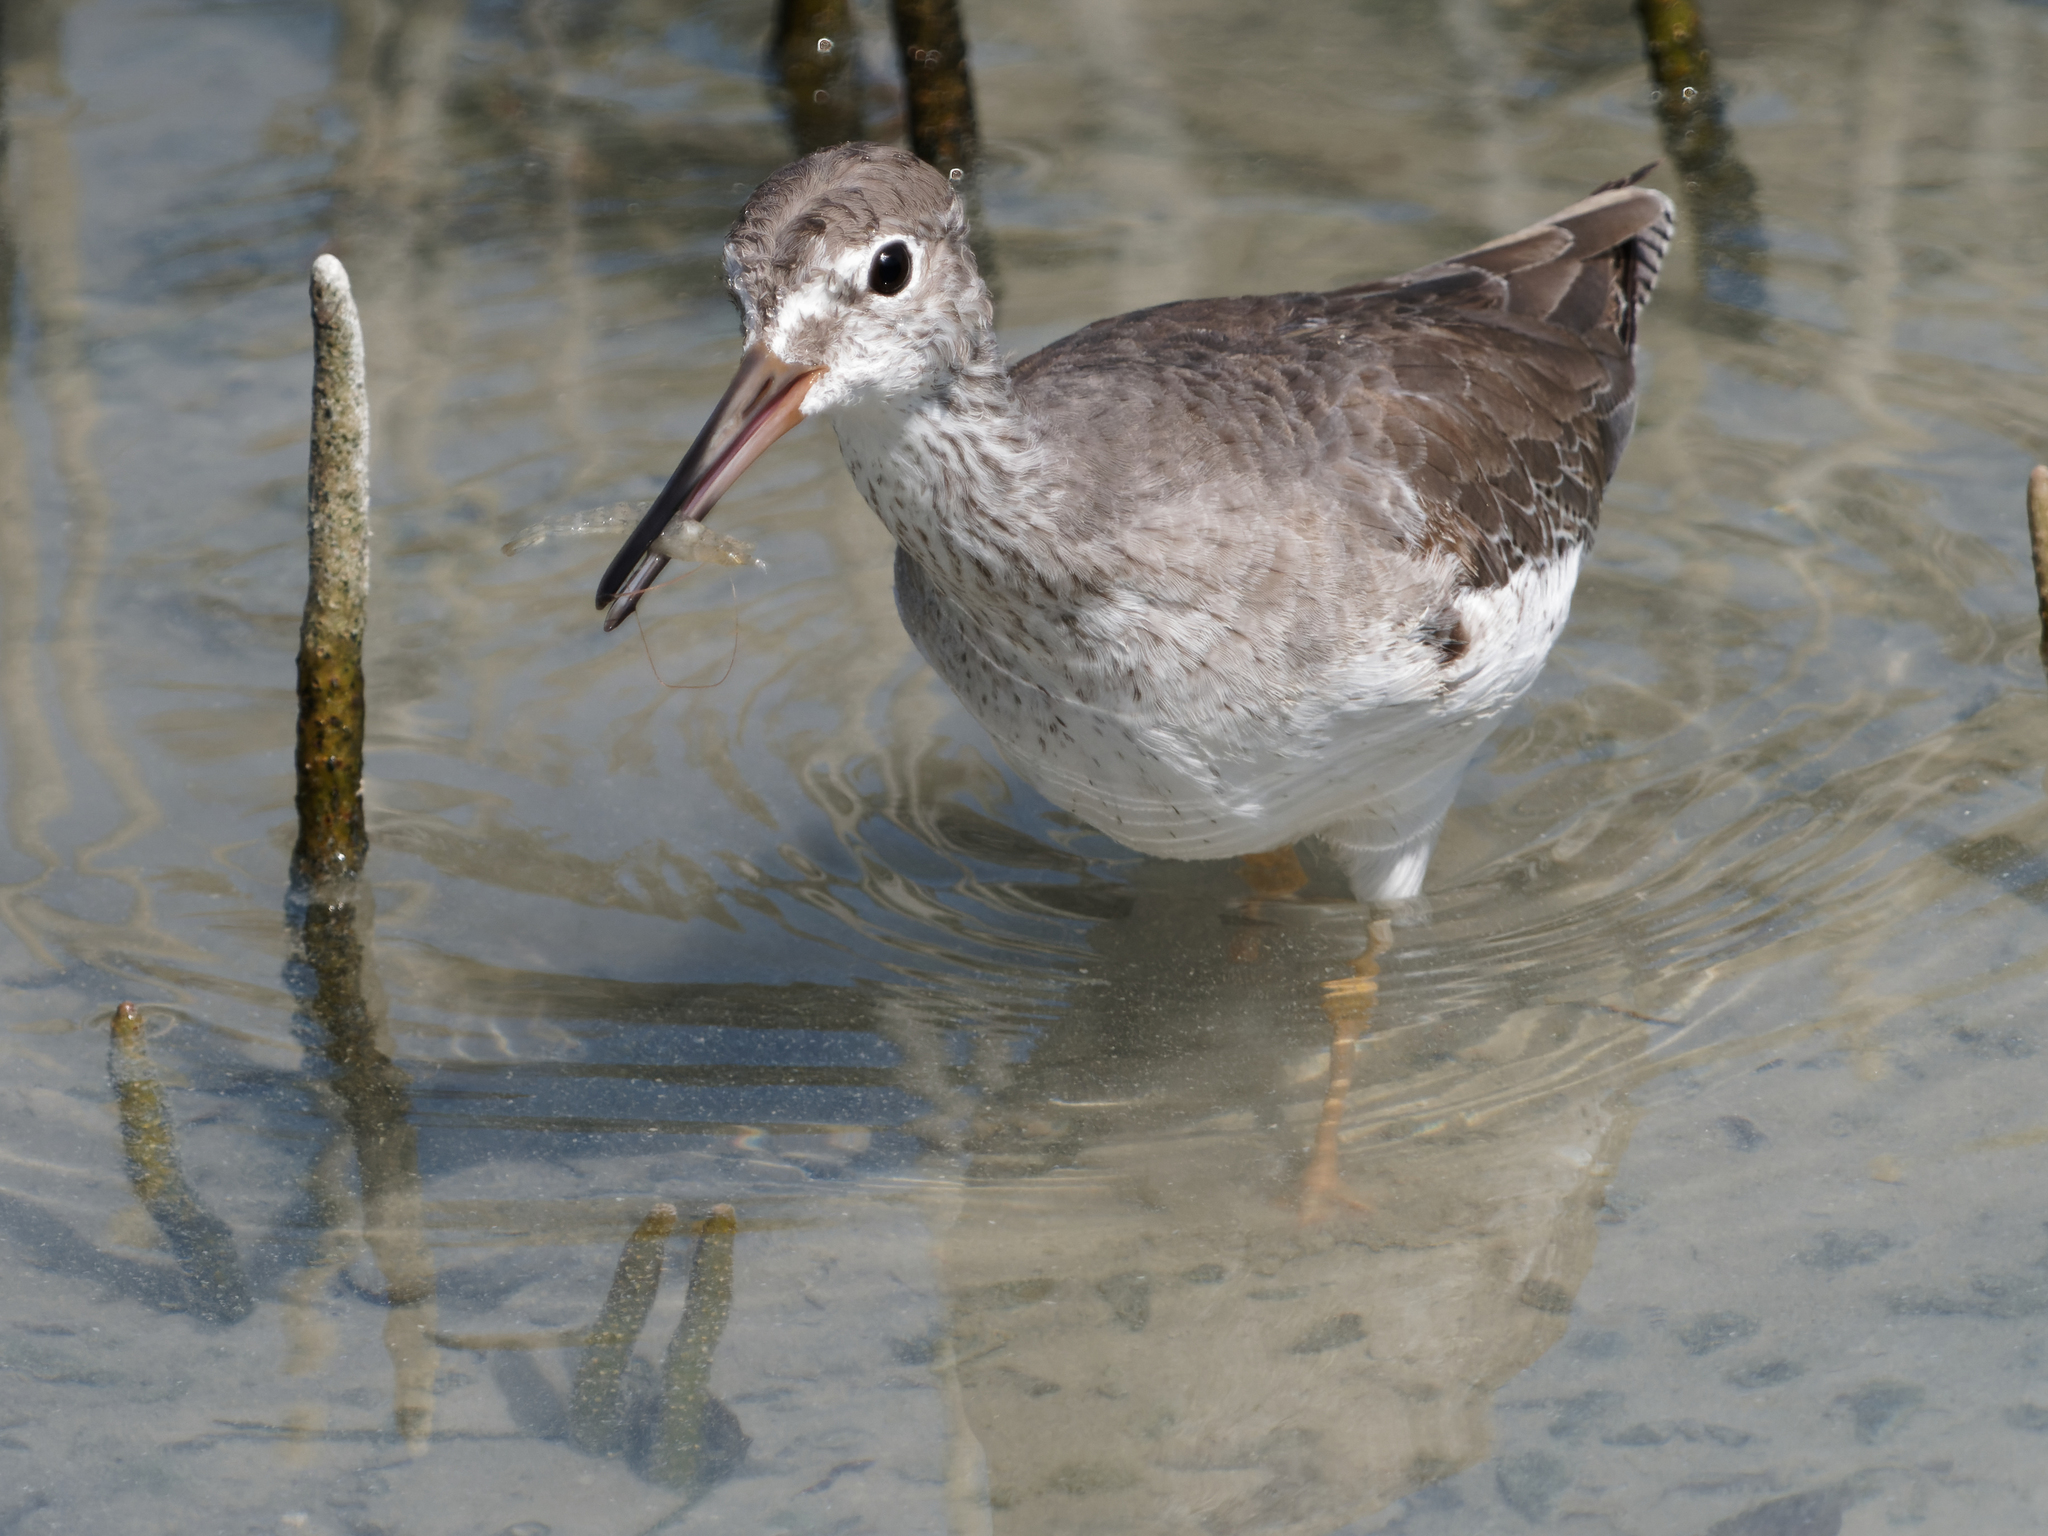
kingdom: Animalia
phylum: Chordata
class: Aves
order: Charadriiformes
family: Scolopacidae
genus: Tringa
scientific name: Tringa totanus
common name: Common redshank
